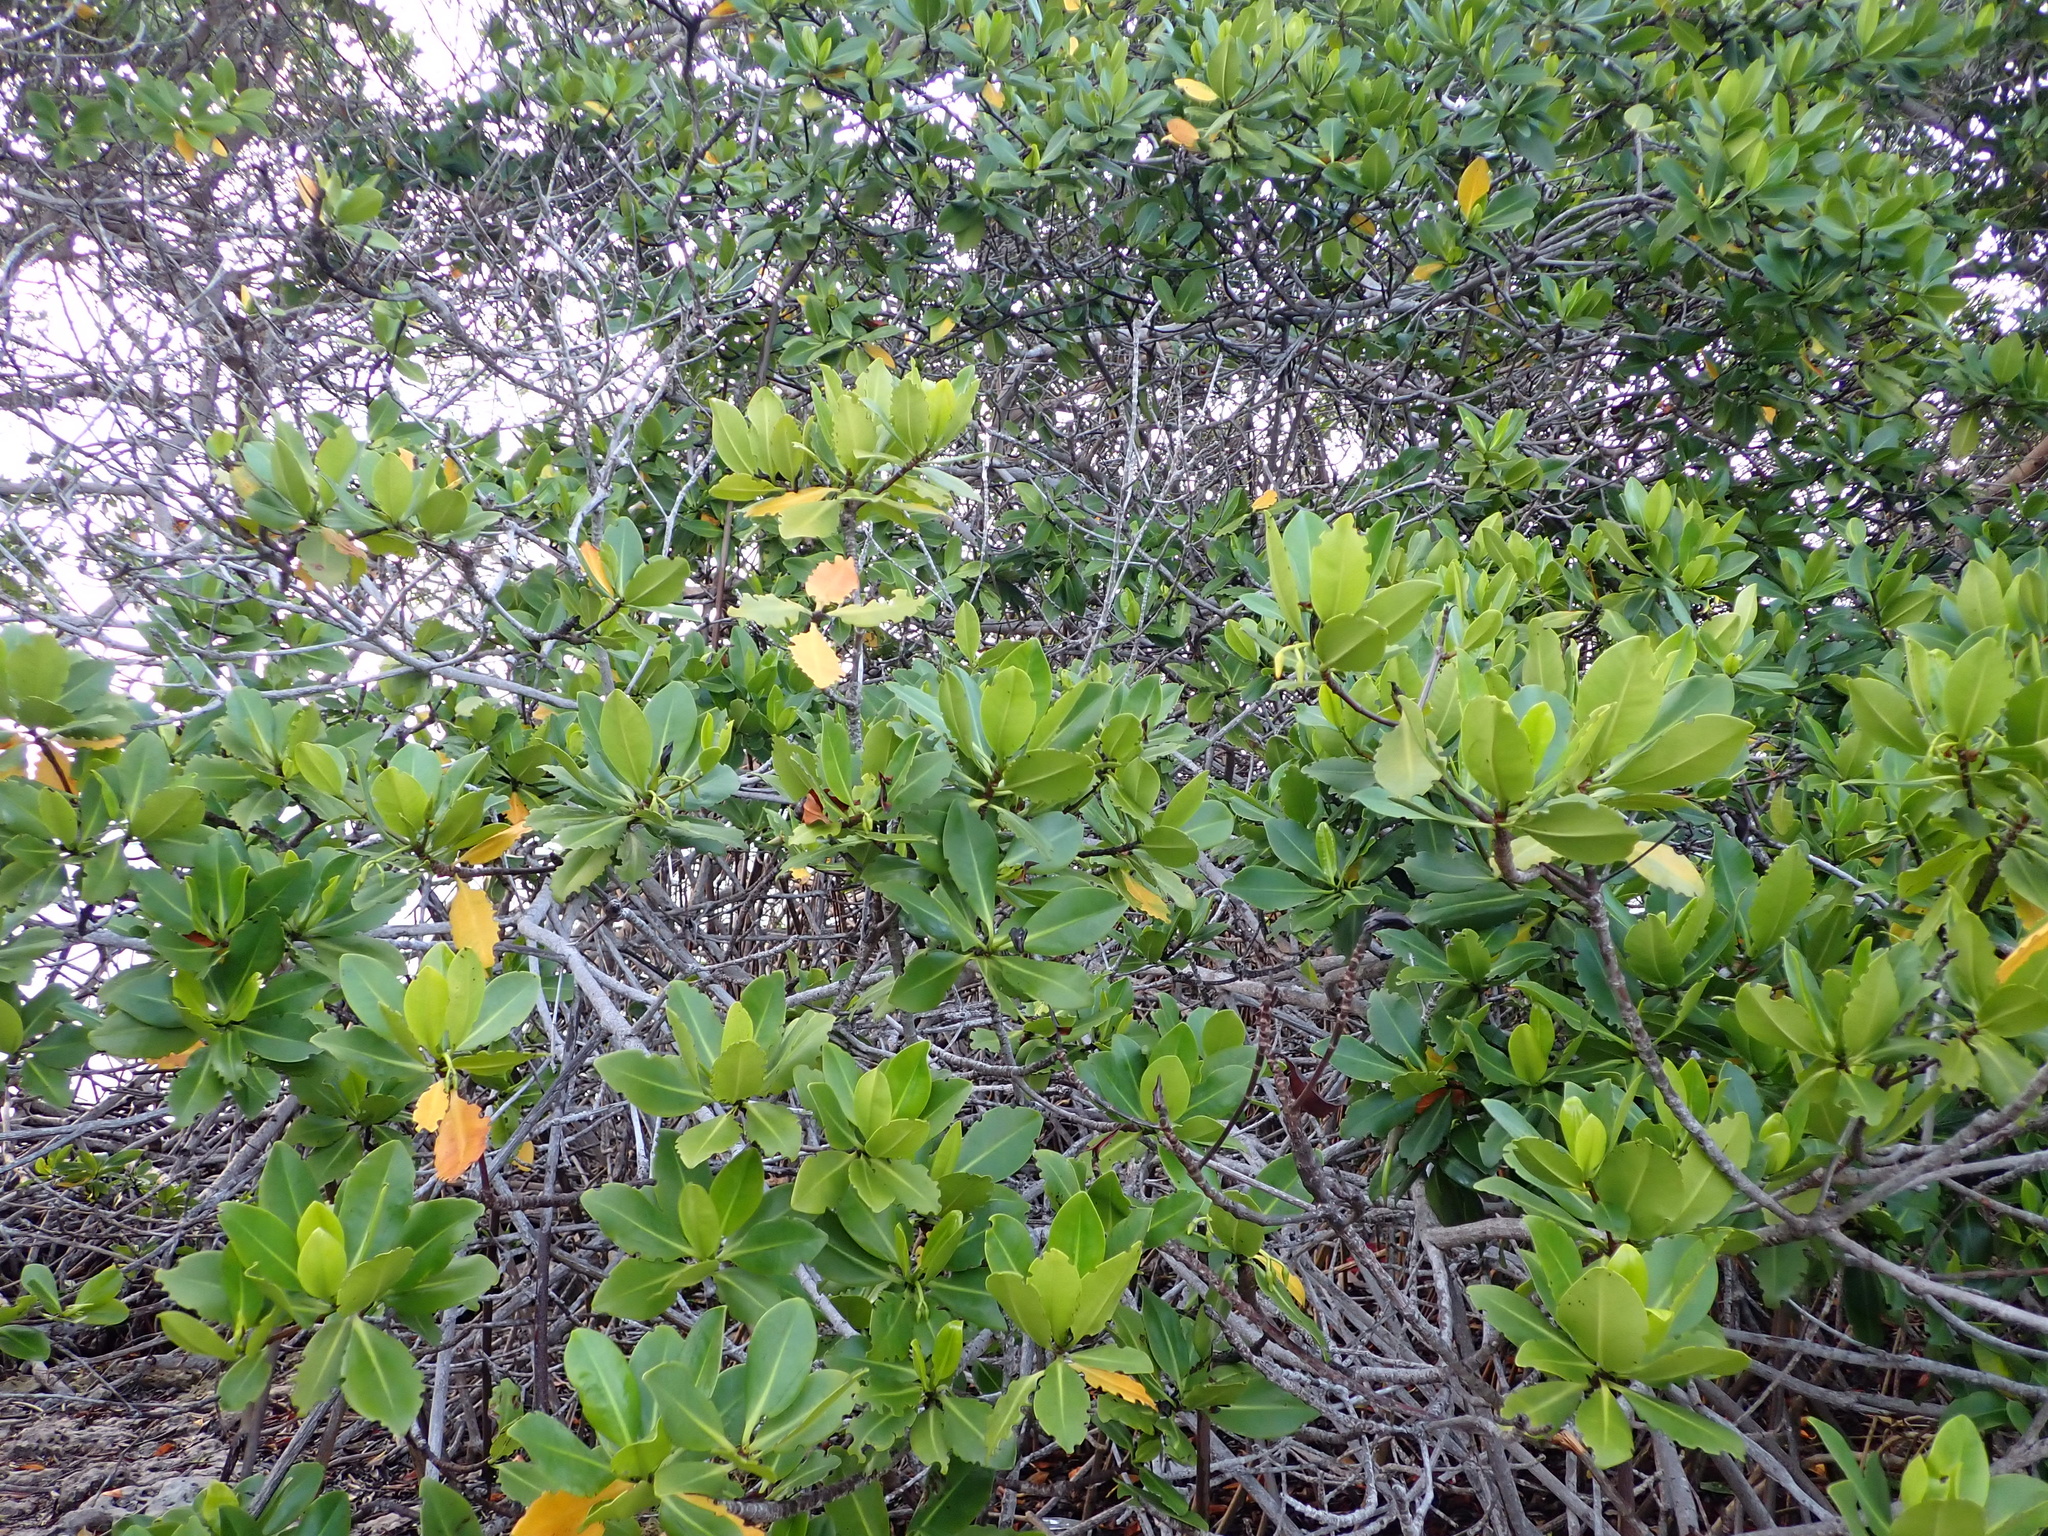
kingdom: Plantae
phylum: Tracheophyta
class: Magnoliopsida
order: Malpighiales
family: Rhizophoraceae
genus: Rhizophora
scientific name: Rhizophora mangle
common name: Red mangrove
